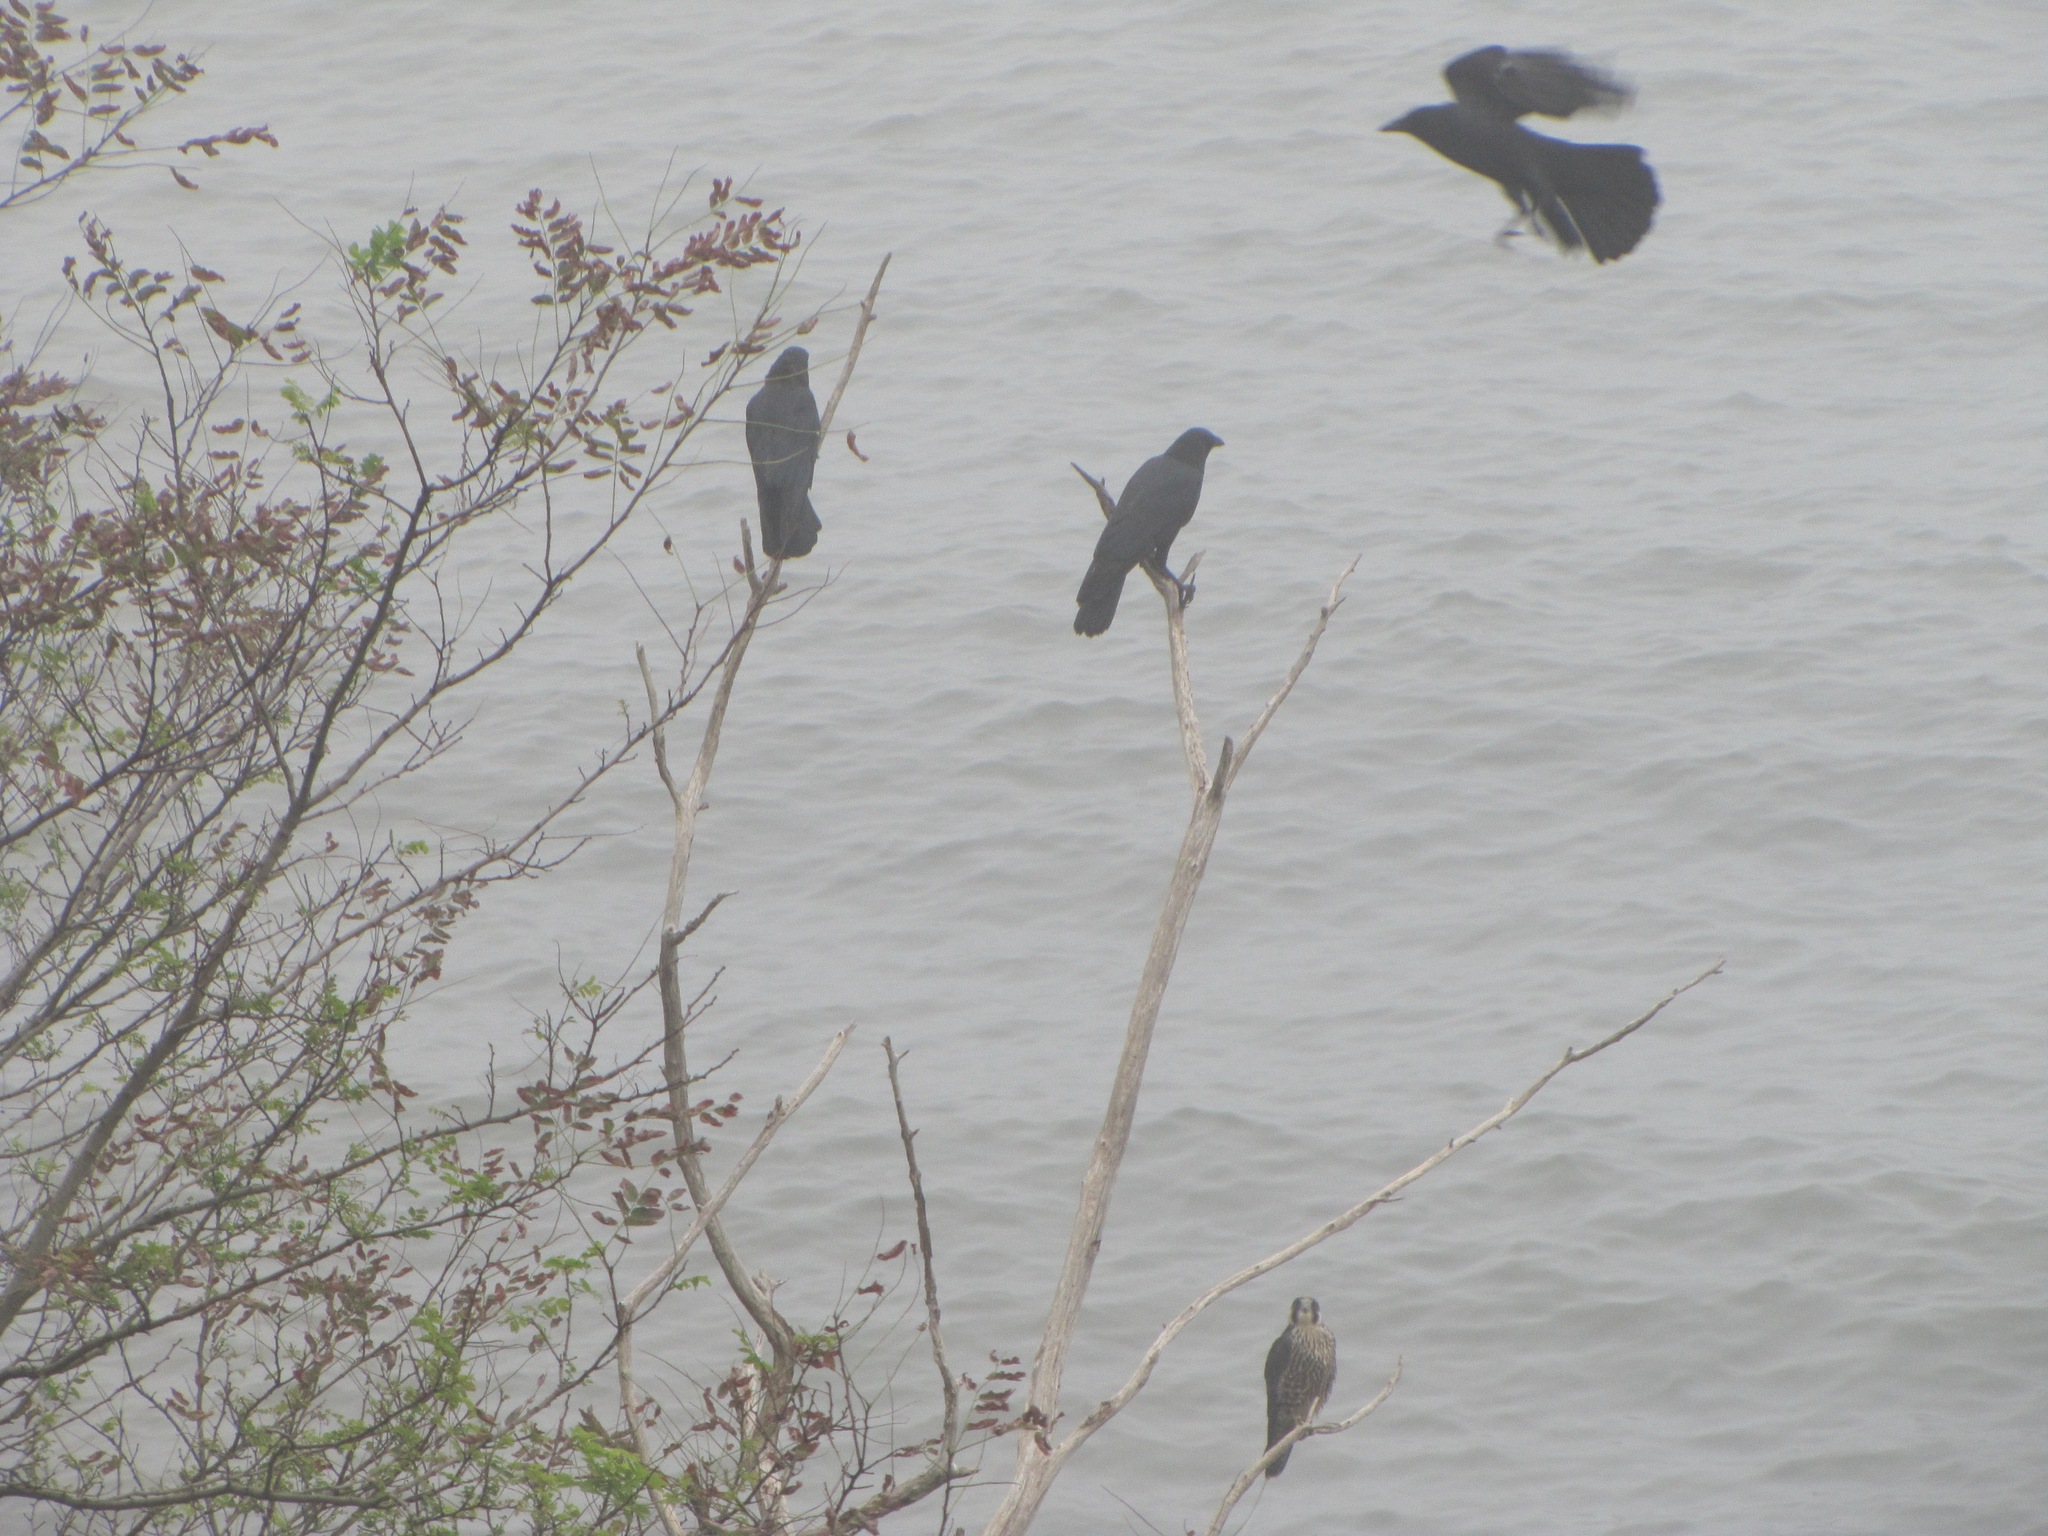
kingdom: Animalia
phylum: Chordata
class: Aves
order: Passeriformes
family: Corvidae
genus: Corvus
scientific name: Corvus brachyrhynchos
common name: American crow
